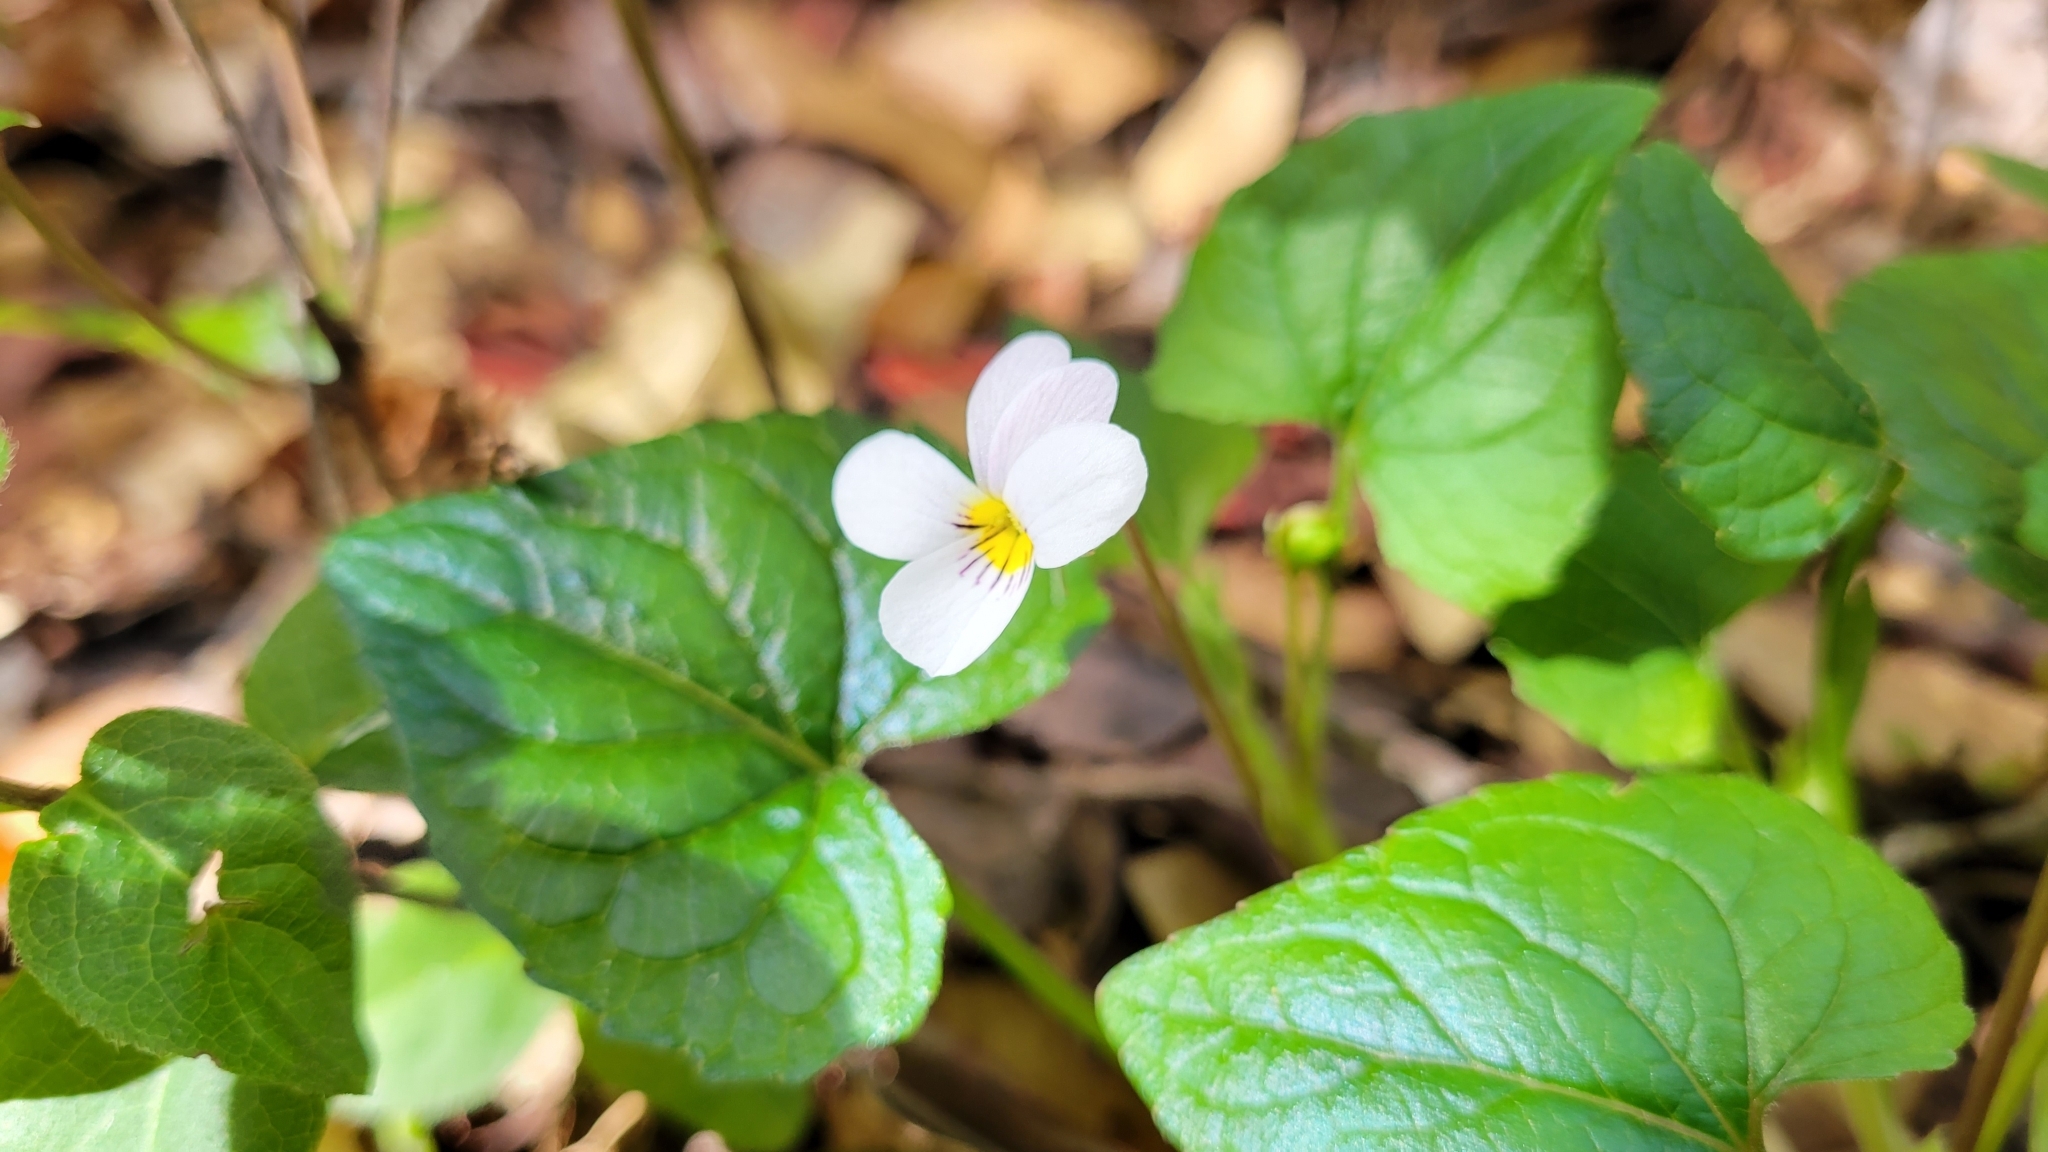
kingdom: Plantae
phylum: Tracheophyta
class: Magnoliopsida
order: Malpighiales
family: Violaceae
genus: Viola
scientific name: Viola ocellata
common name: Western heart's ease
